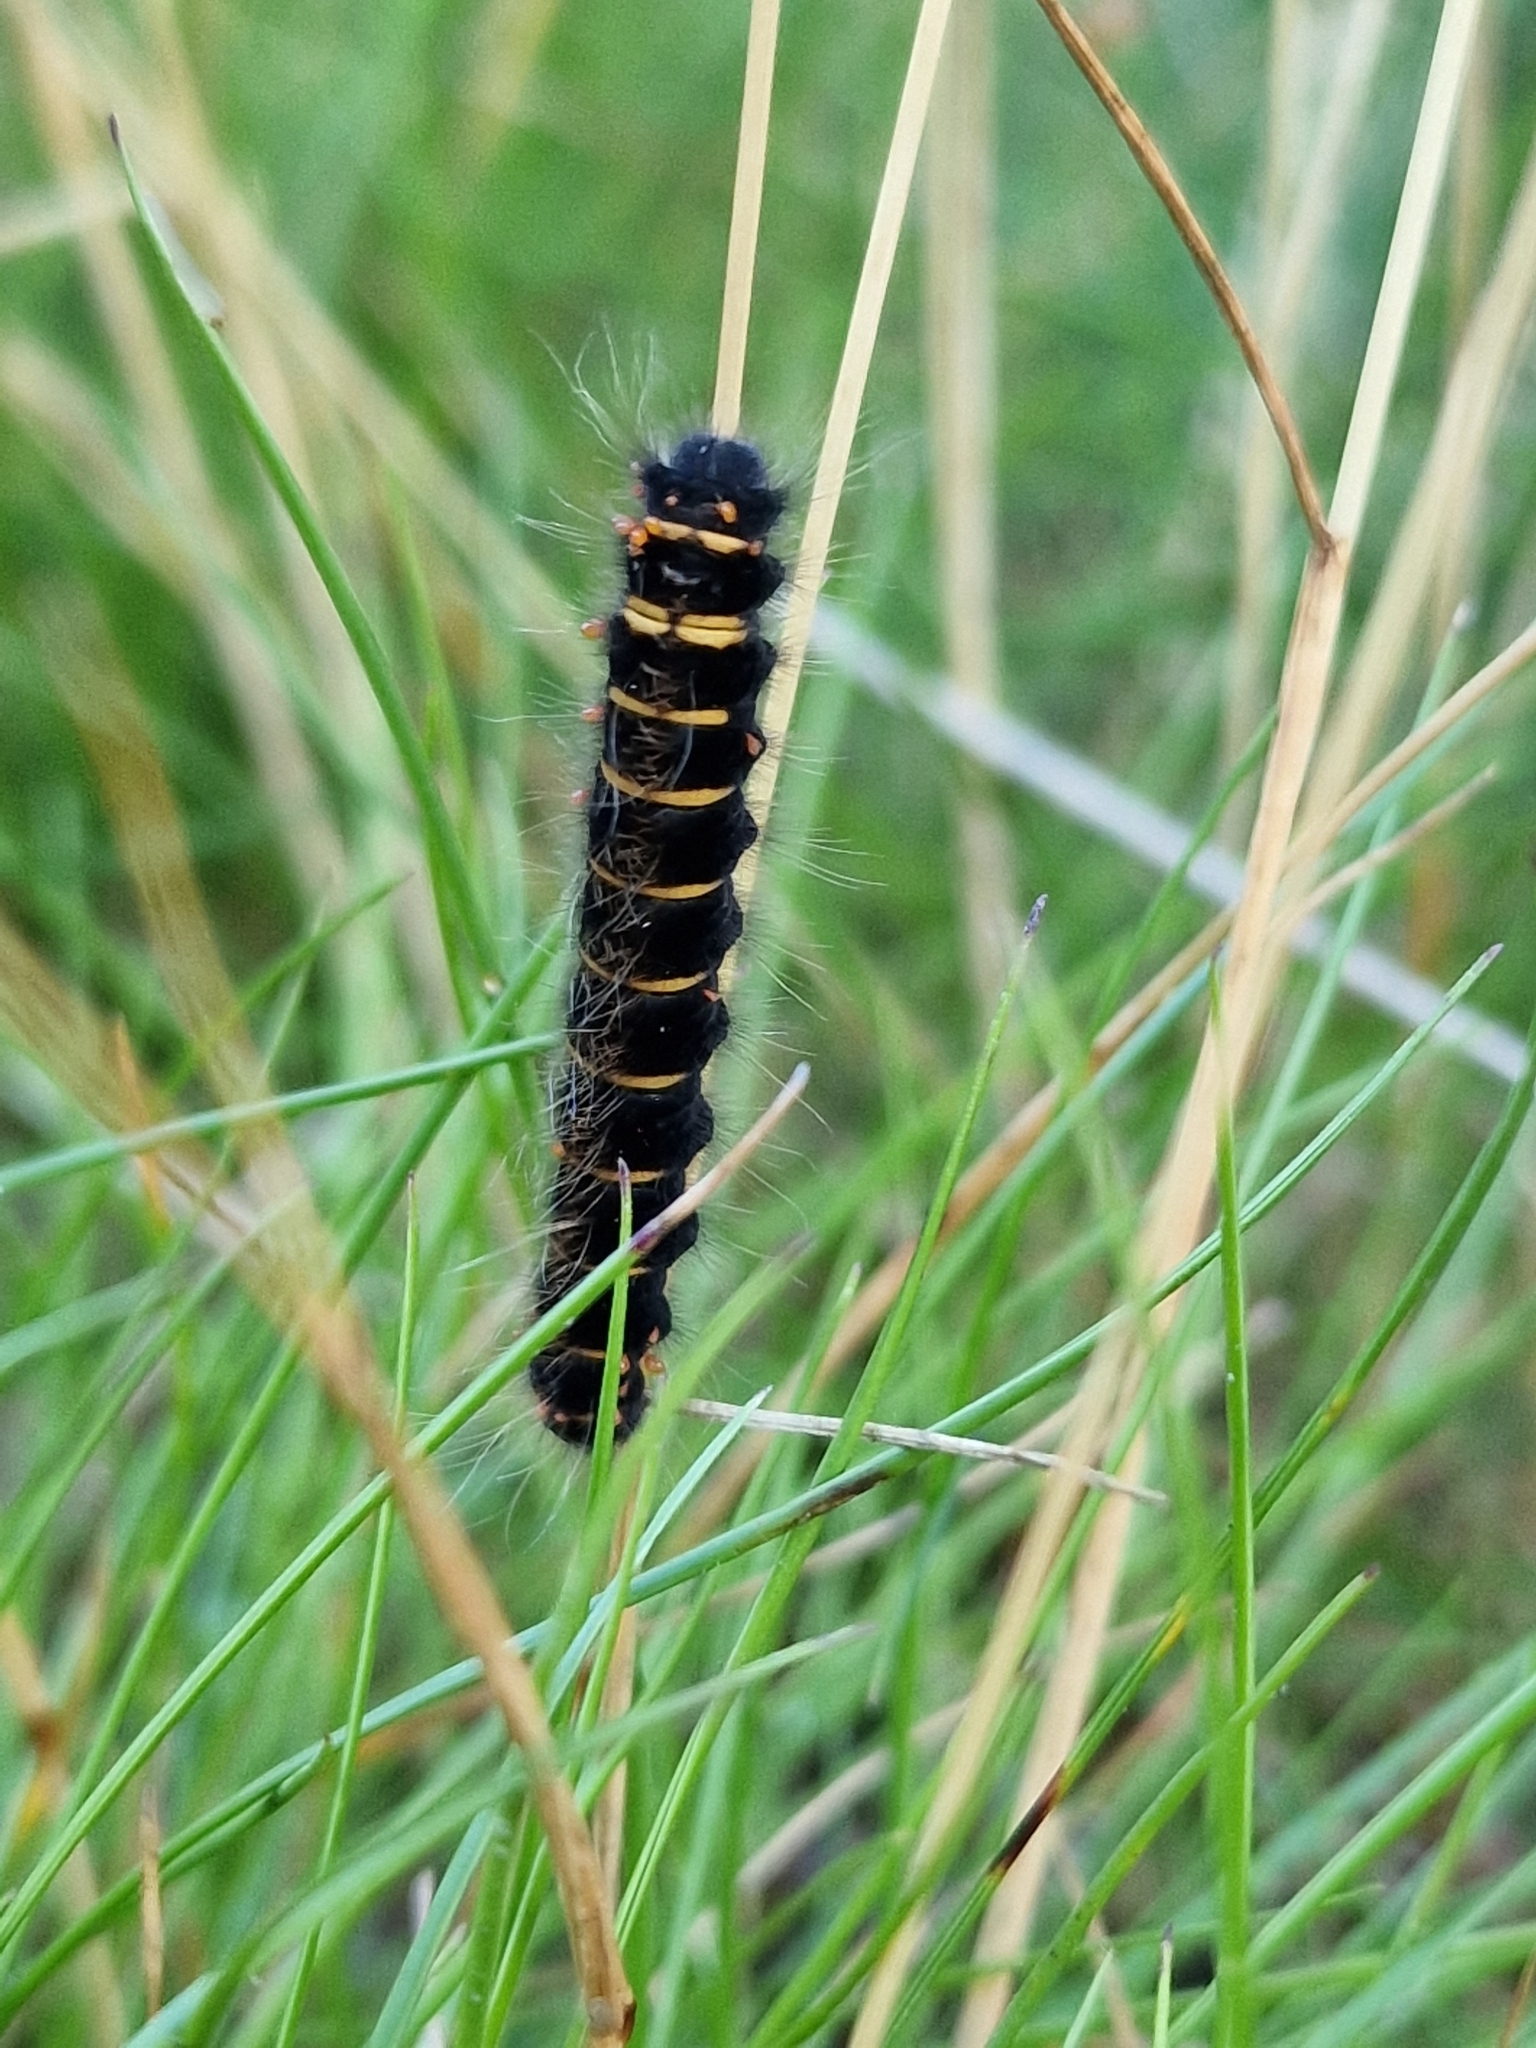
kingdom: Animalia
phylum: Arthropoda
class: Insecta
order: Lepidoptera
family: Lasiocampidae
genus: Macrothylacia
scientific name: Macrothylacia rubi
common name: Fox moth
